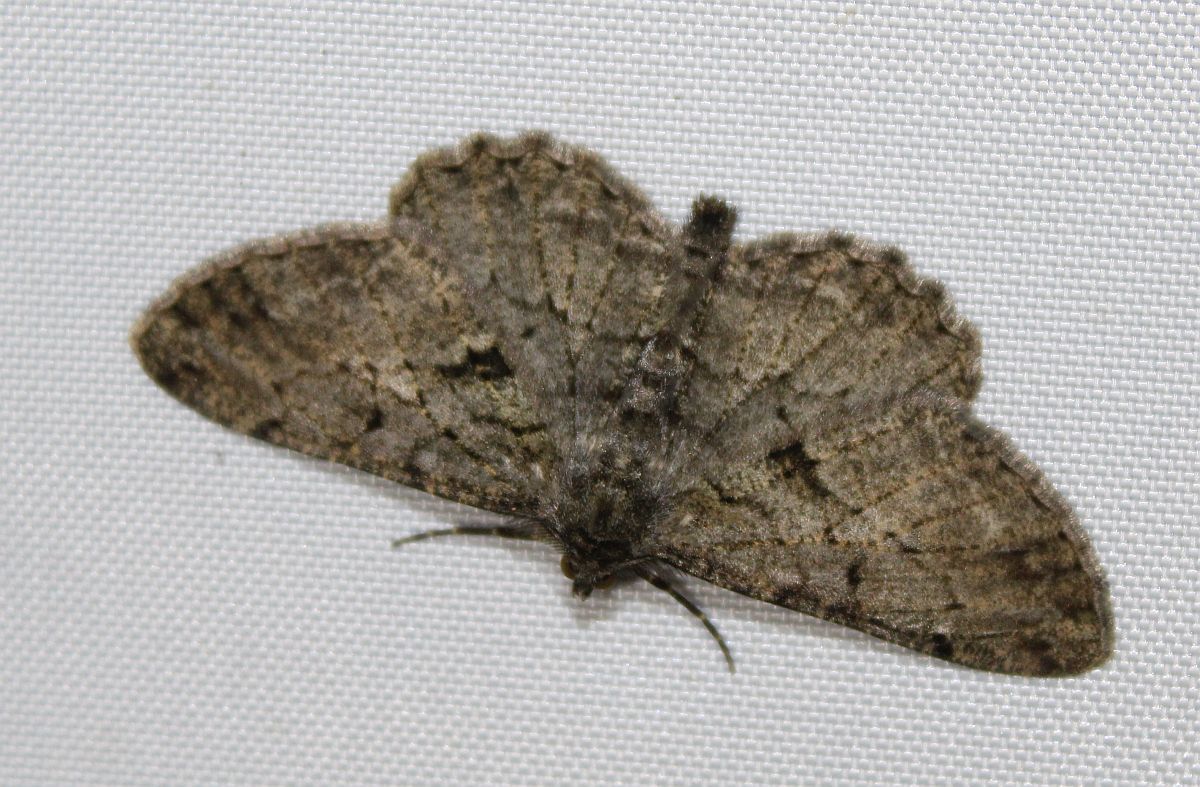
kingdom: Animalia
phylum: Arthropoda
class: Insecta
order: Lepidoptera
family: Geometridae
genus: Peribatodes
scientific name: Peribatodes rhomboidaria
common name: Willow beauty
